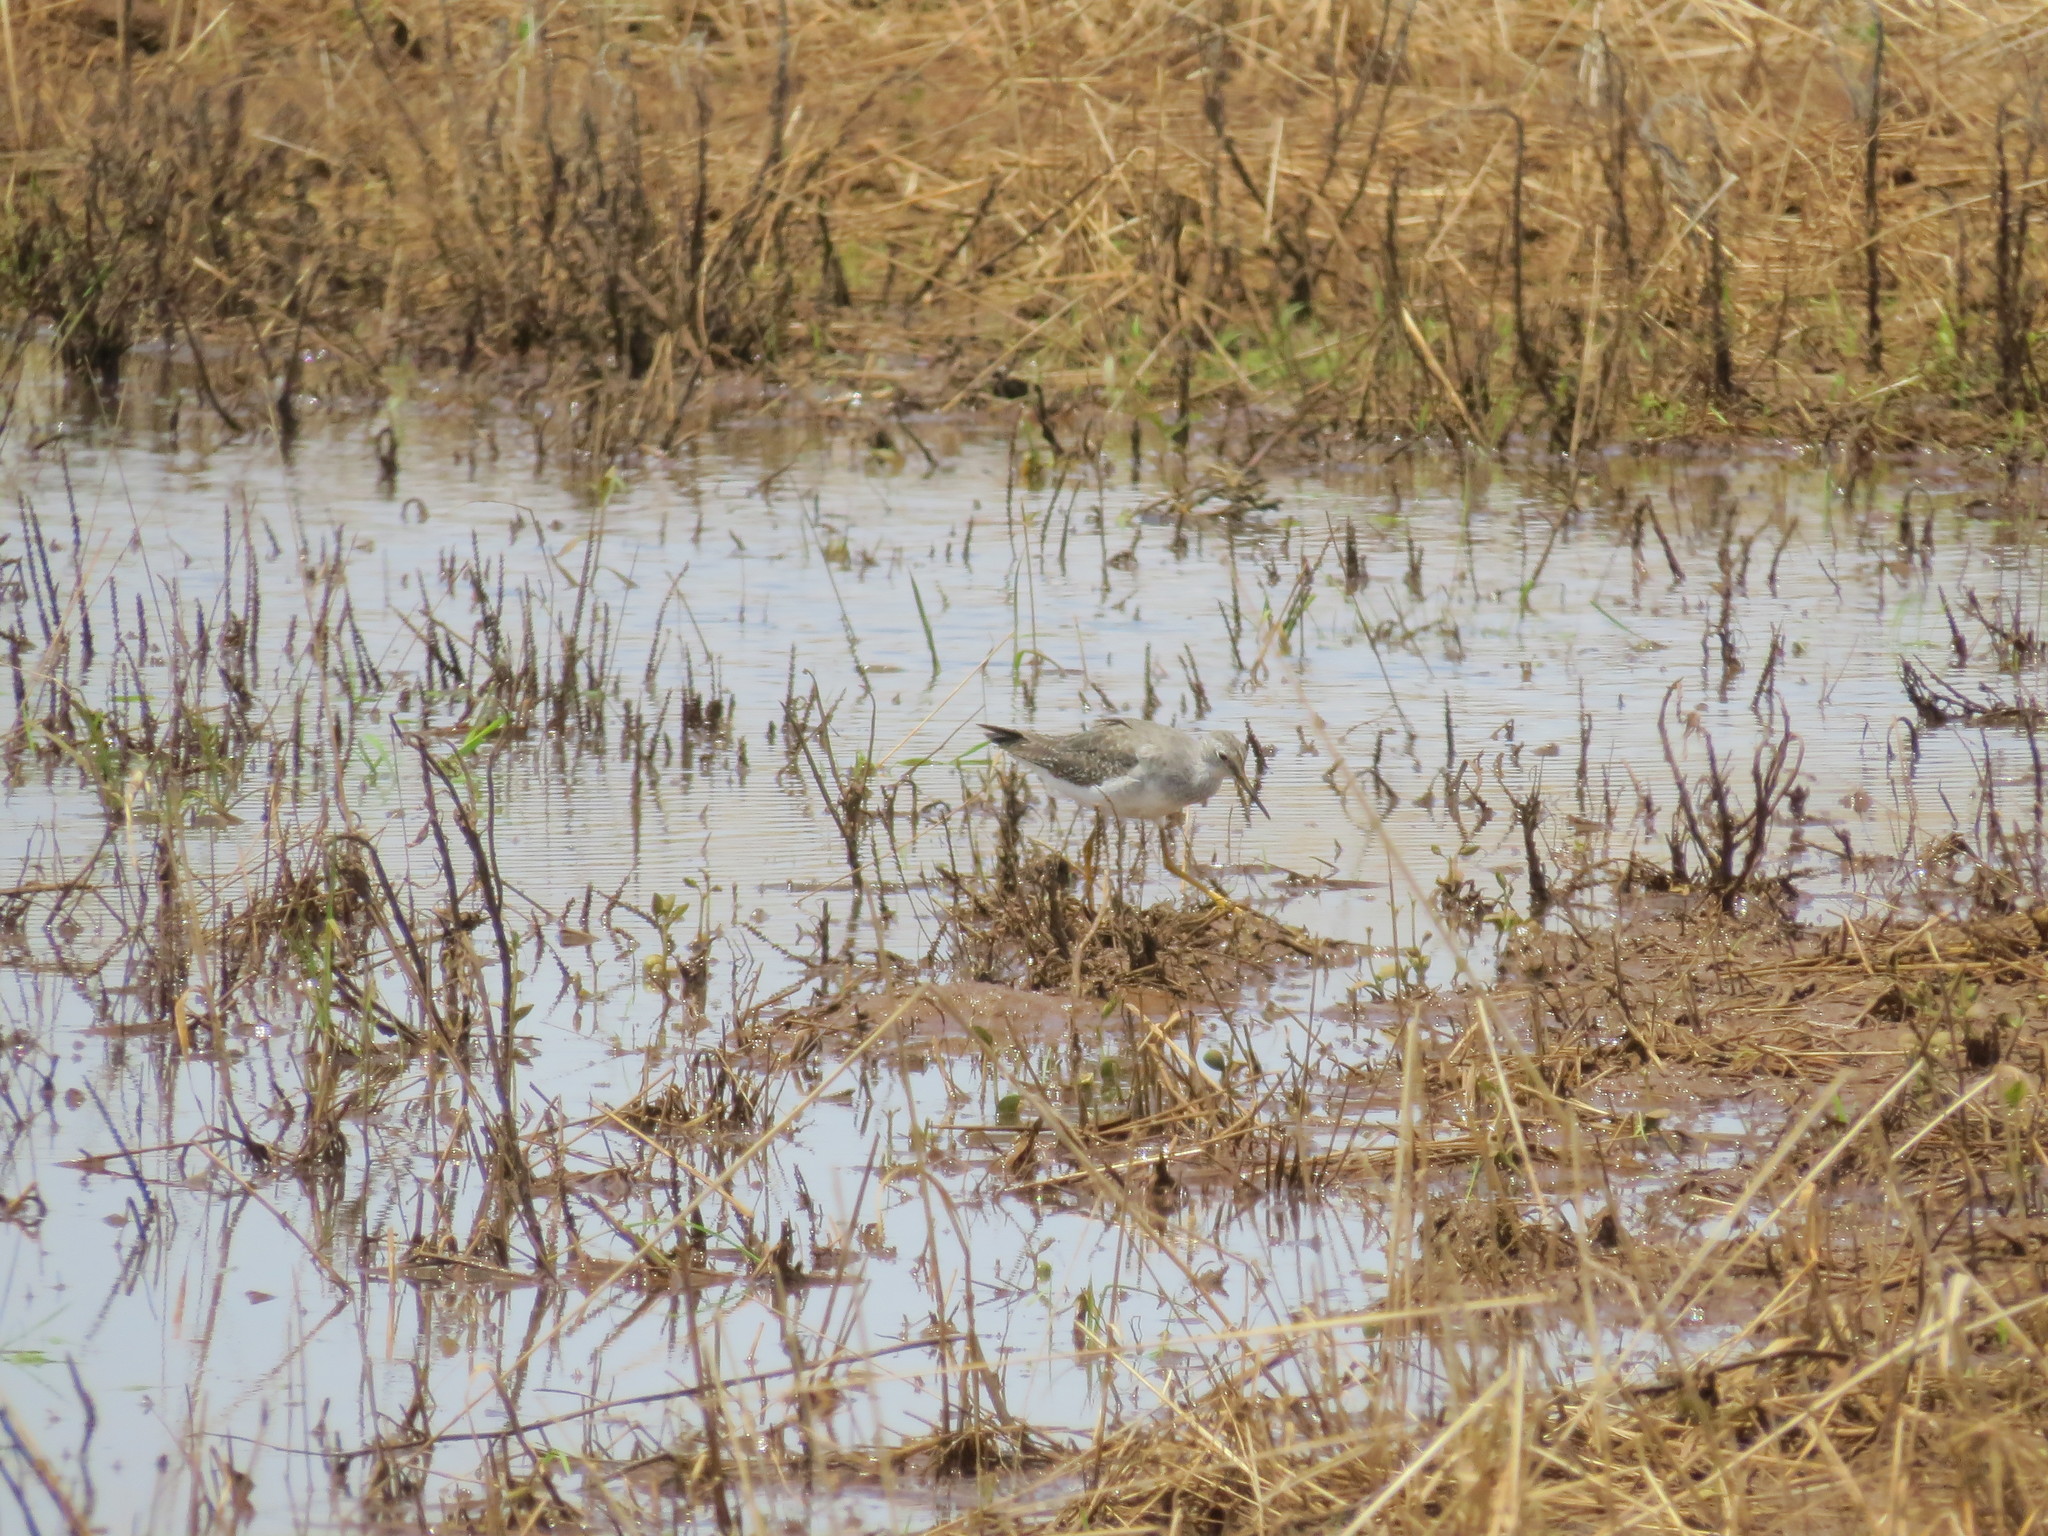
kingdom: Animalia
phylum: Chordata
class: Aves
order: Charadriiformes
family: Scolopacidae
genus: Tringa
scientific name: Tringa flavipes
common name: Lesser yellowlegs
